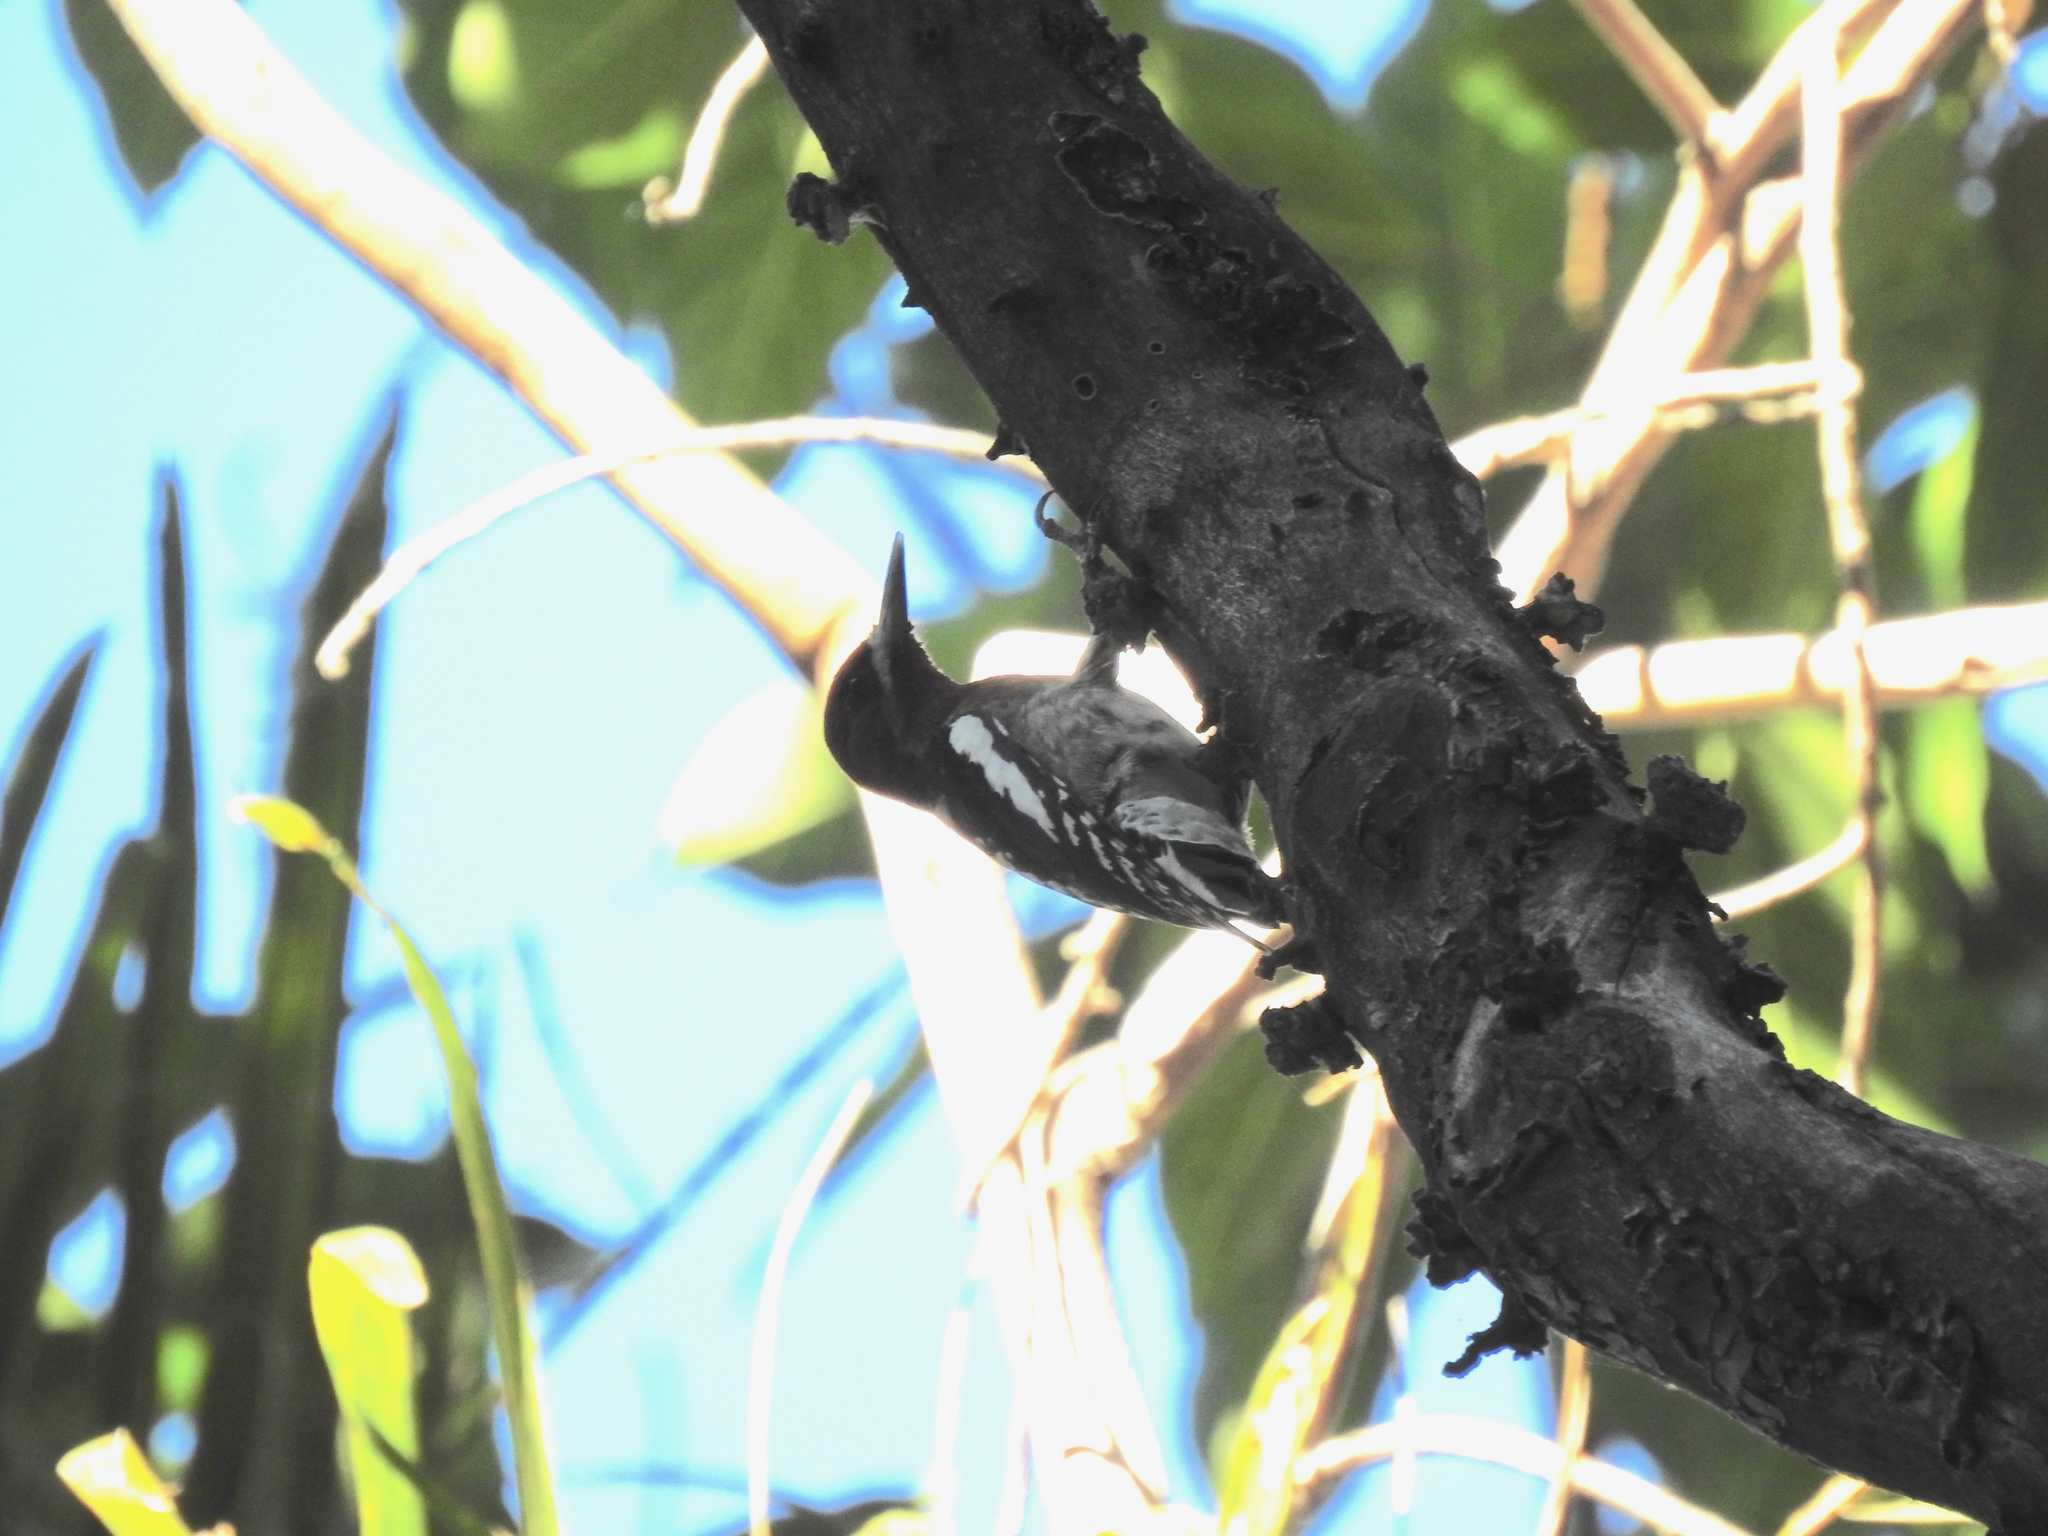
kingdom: Animalia
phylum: Chordata
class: Aves
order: Piciformes
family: Picidae
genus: Sphyrapicus
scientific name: Sphyrapicus ruber
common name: Red-breasted sapsucker
